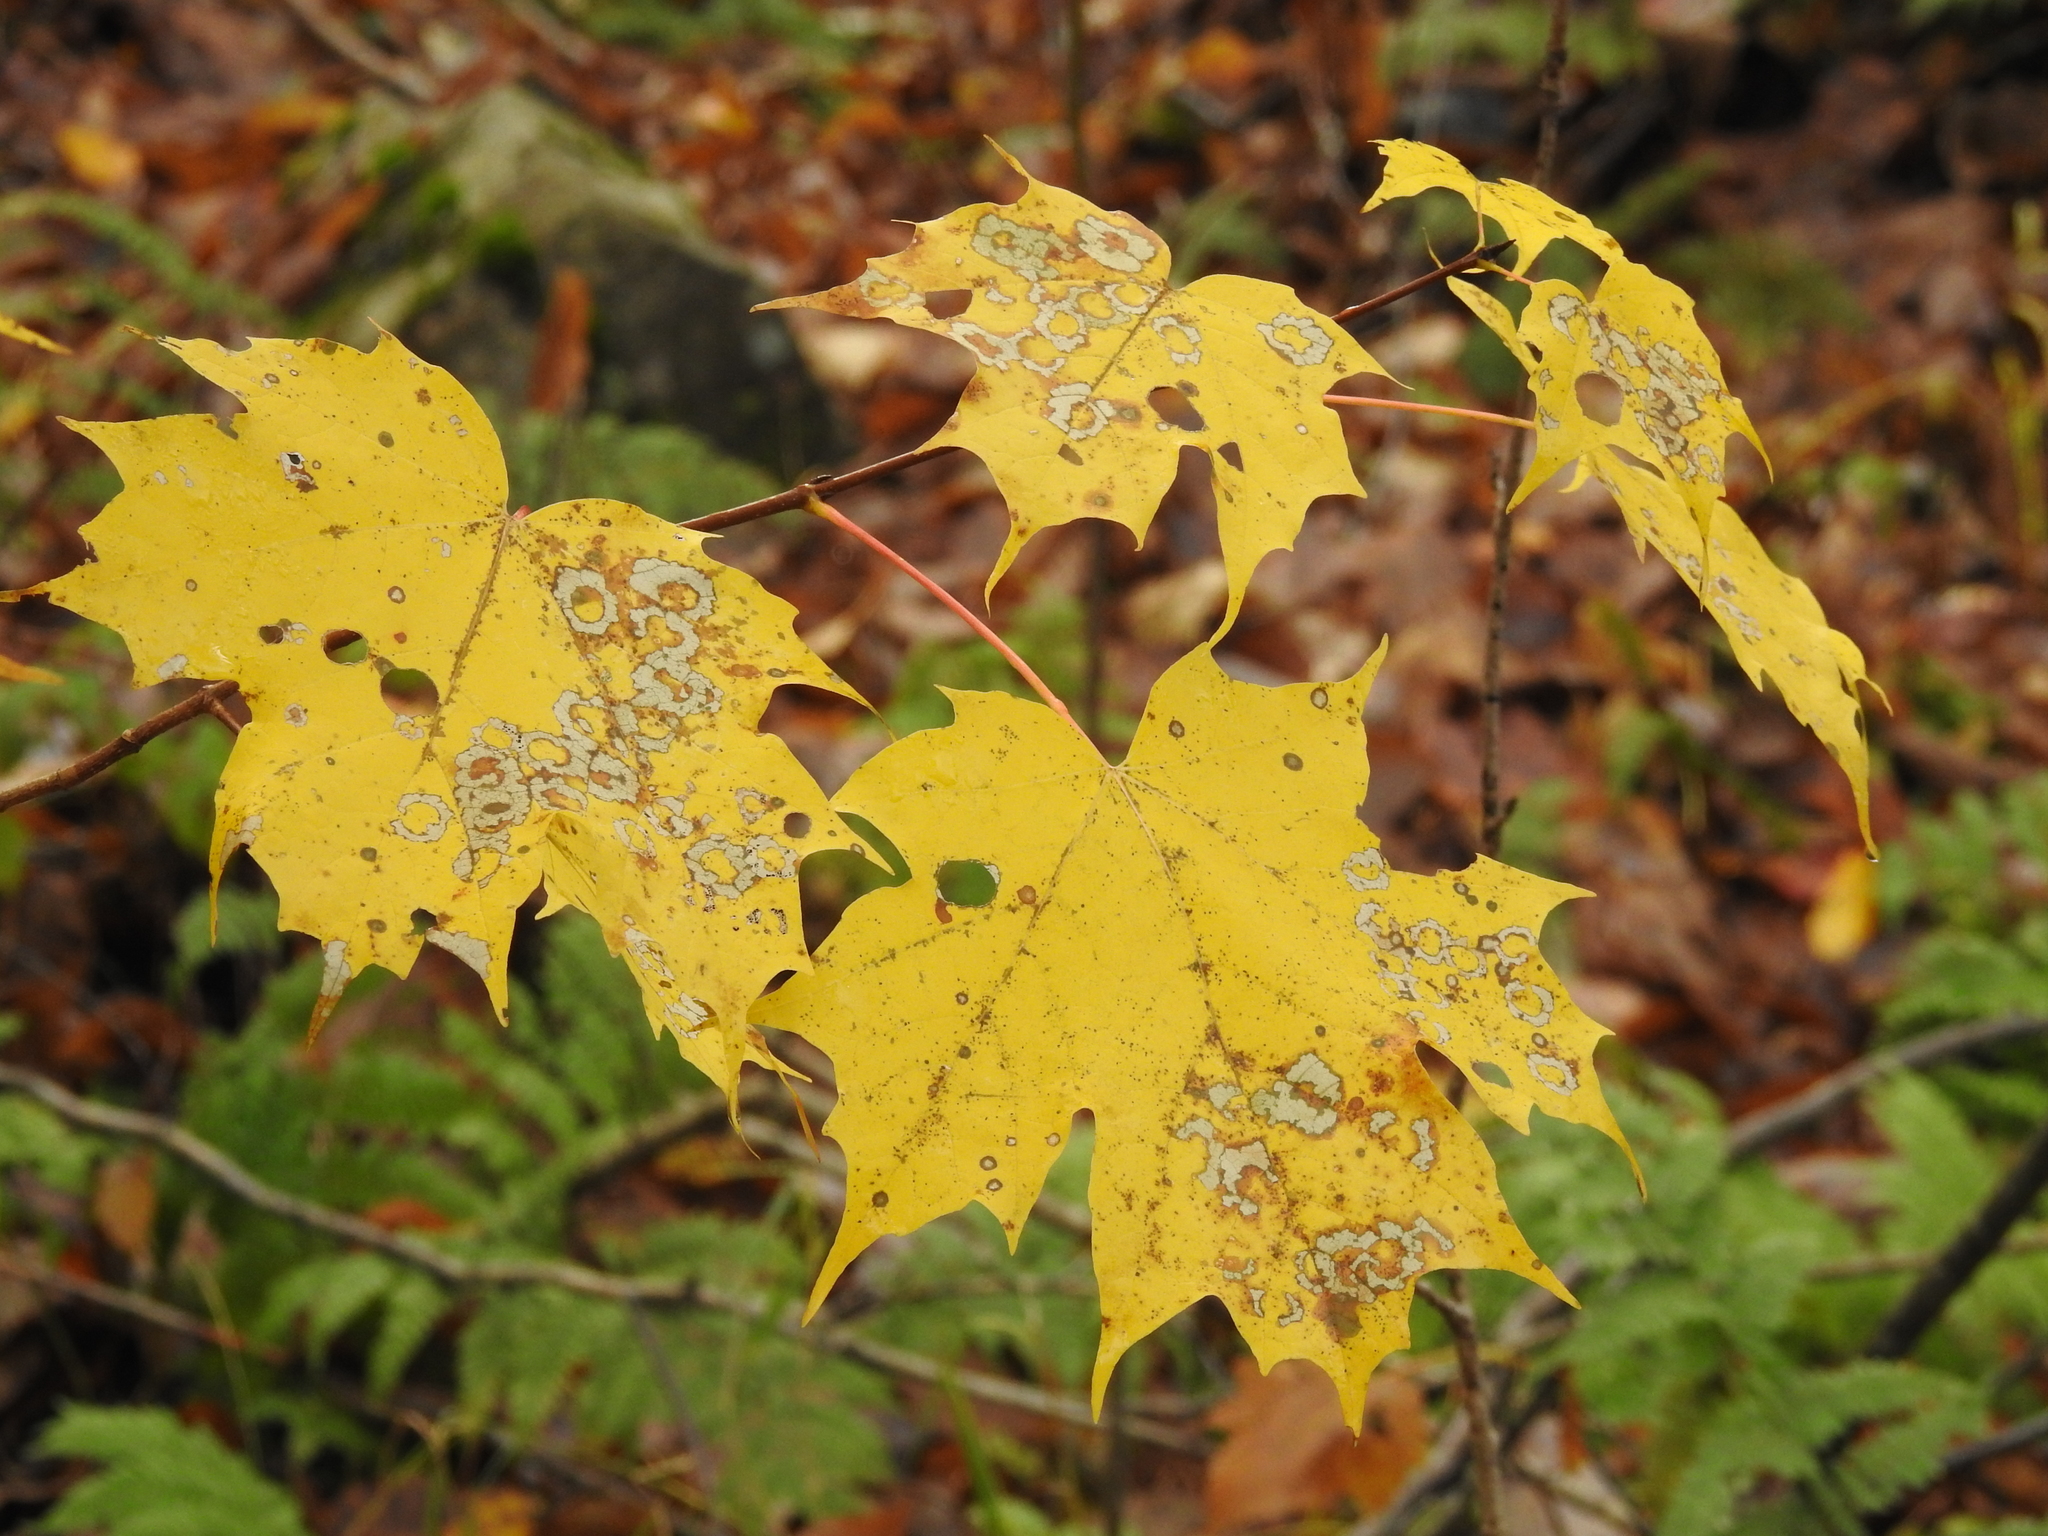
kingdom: Plantae
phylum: Tracheophyta
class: Magnoliopsida
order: Sapindales
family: Sapindaceae
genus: Acer
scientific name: Acer saccharum
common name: Sugar maple
